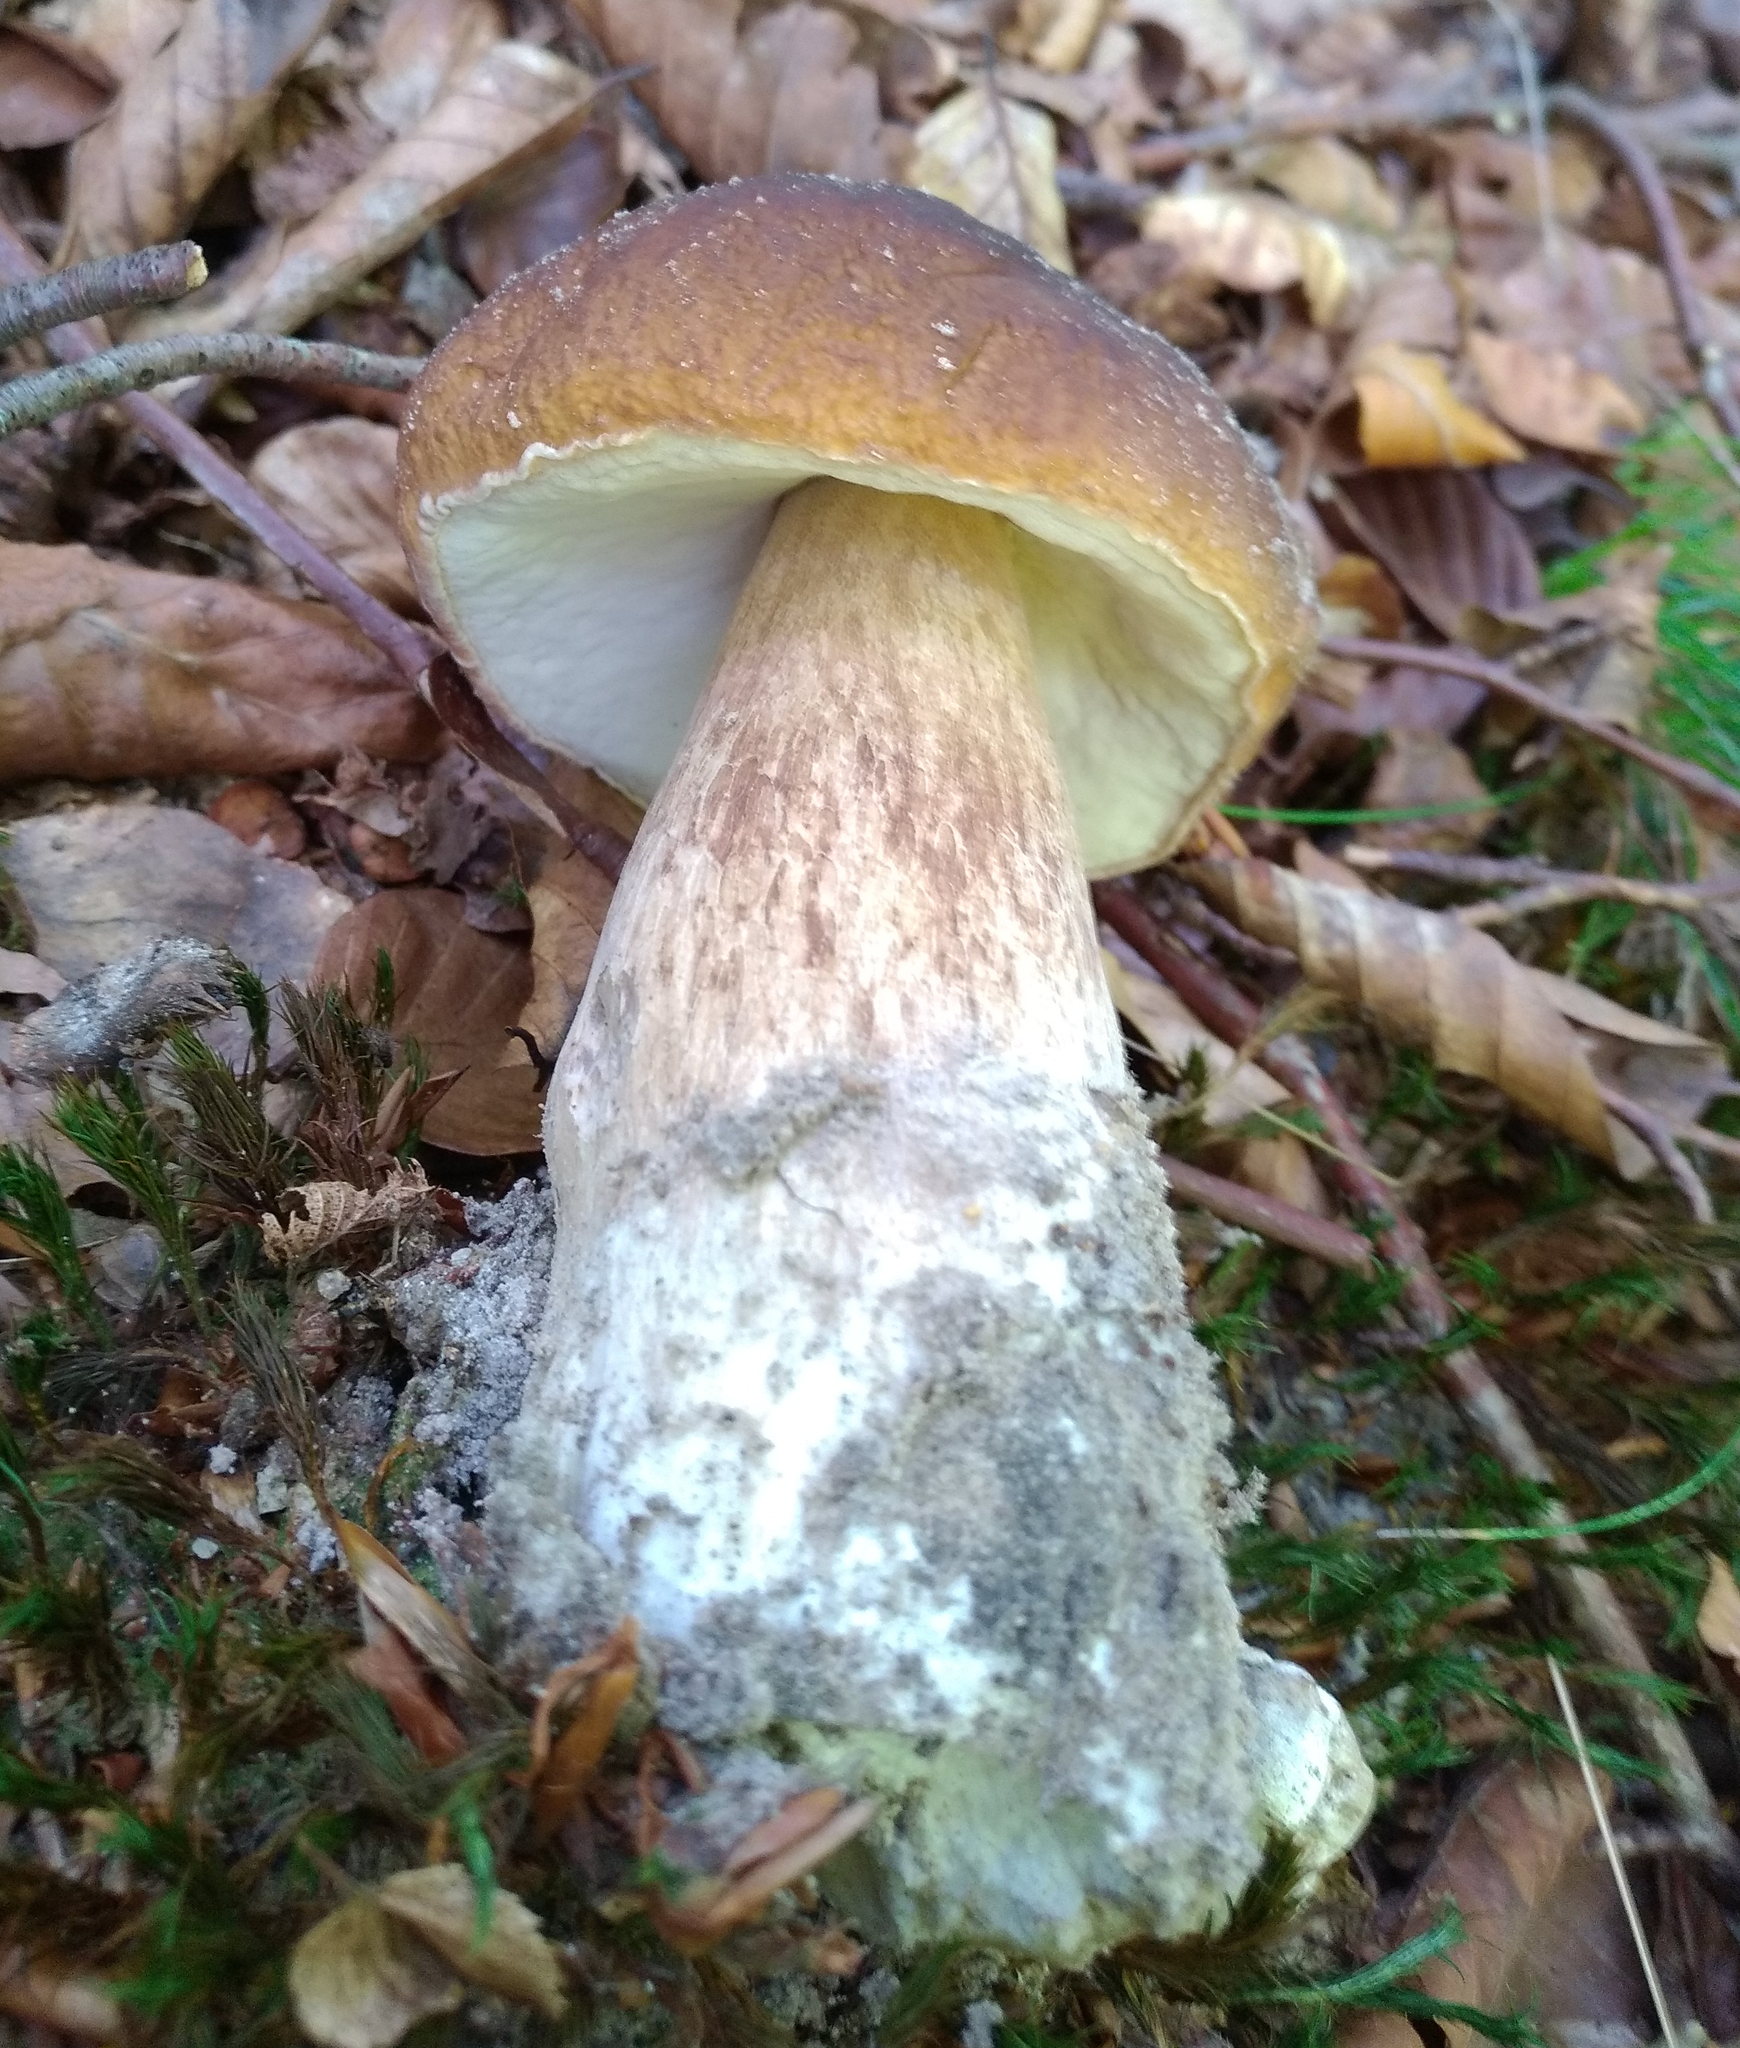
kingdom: Fungi
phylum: Basidiomycota
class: Agaricomycetes
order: Boletales
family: Boletaceae
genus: Boletus
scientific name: Boletus reticulatus
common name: Summer bolete
